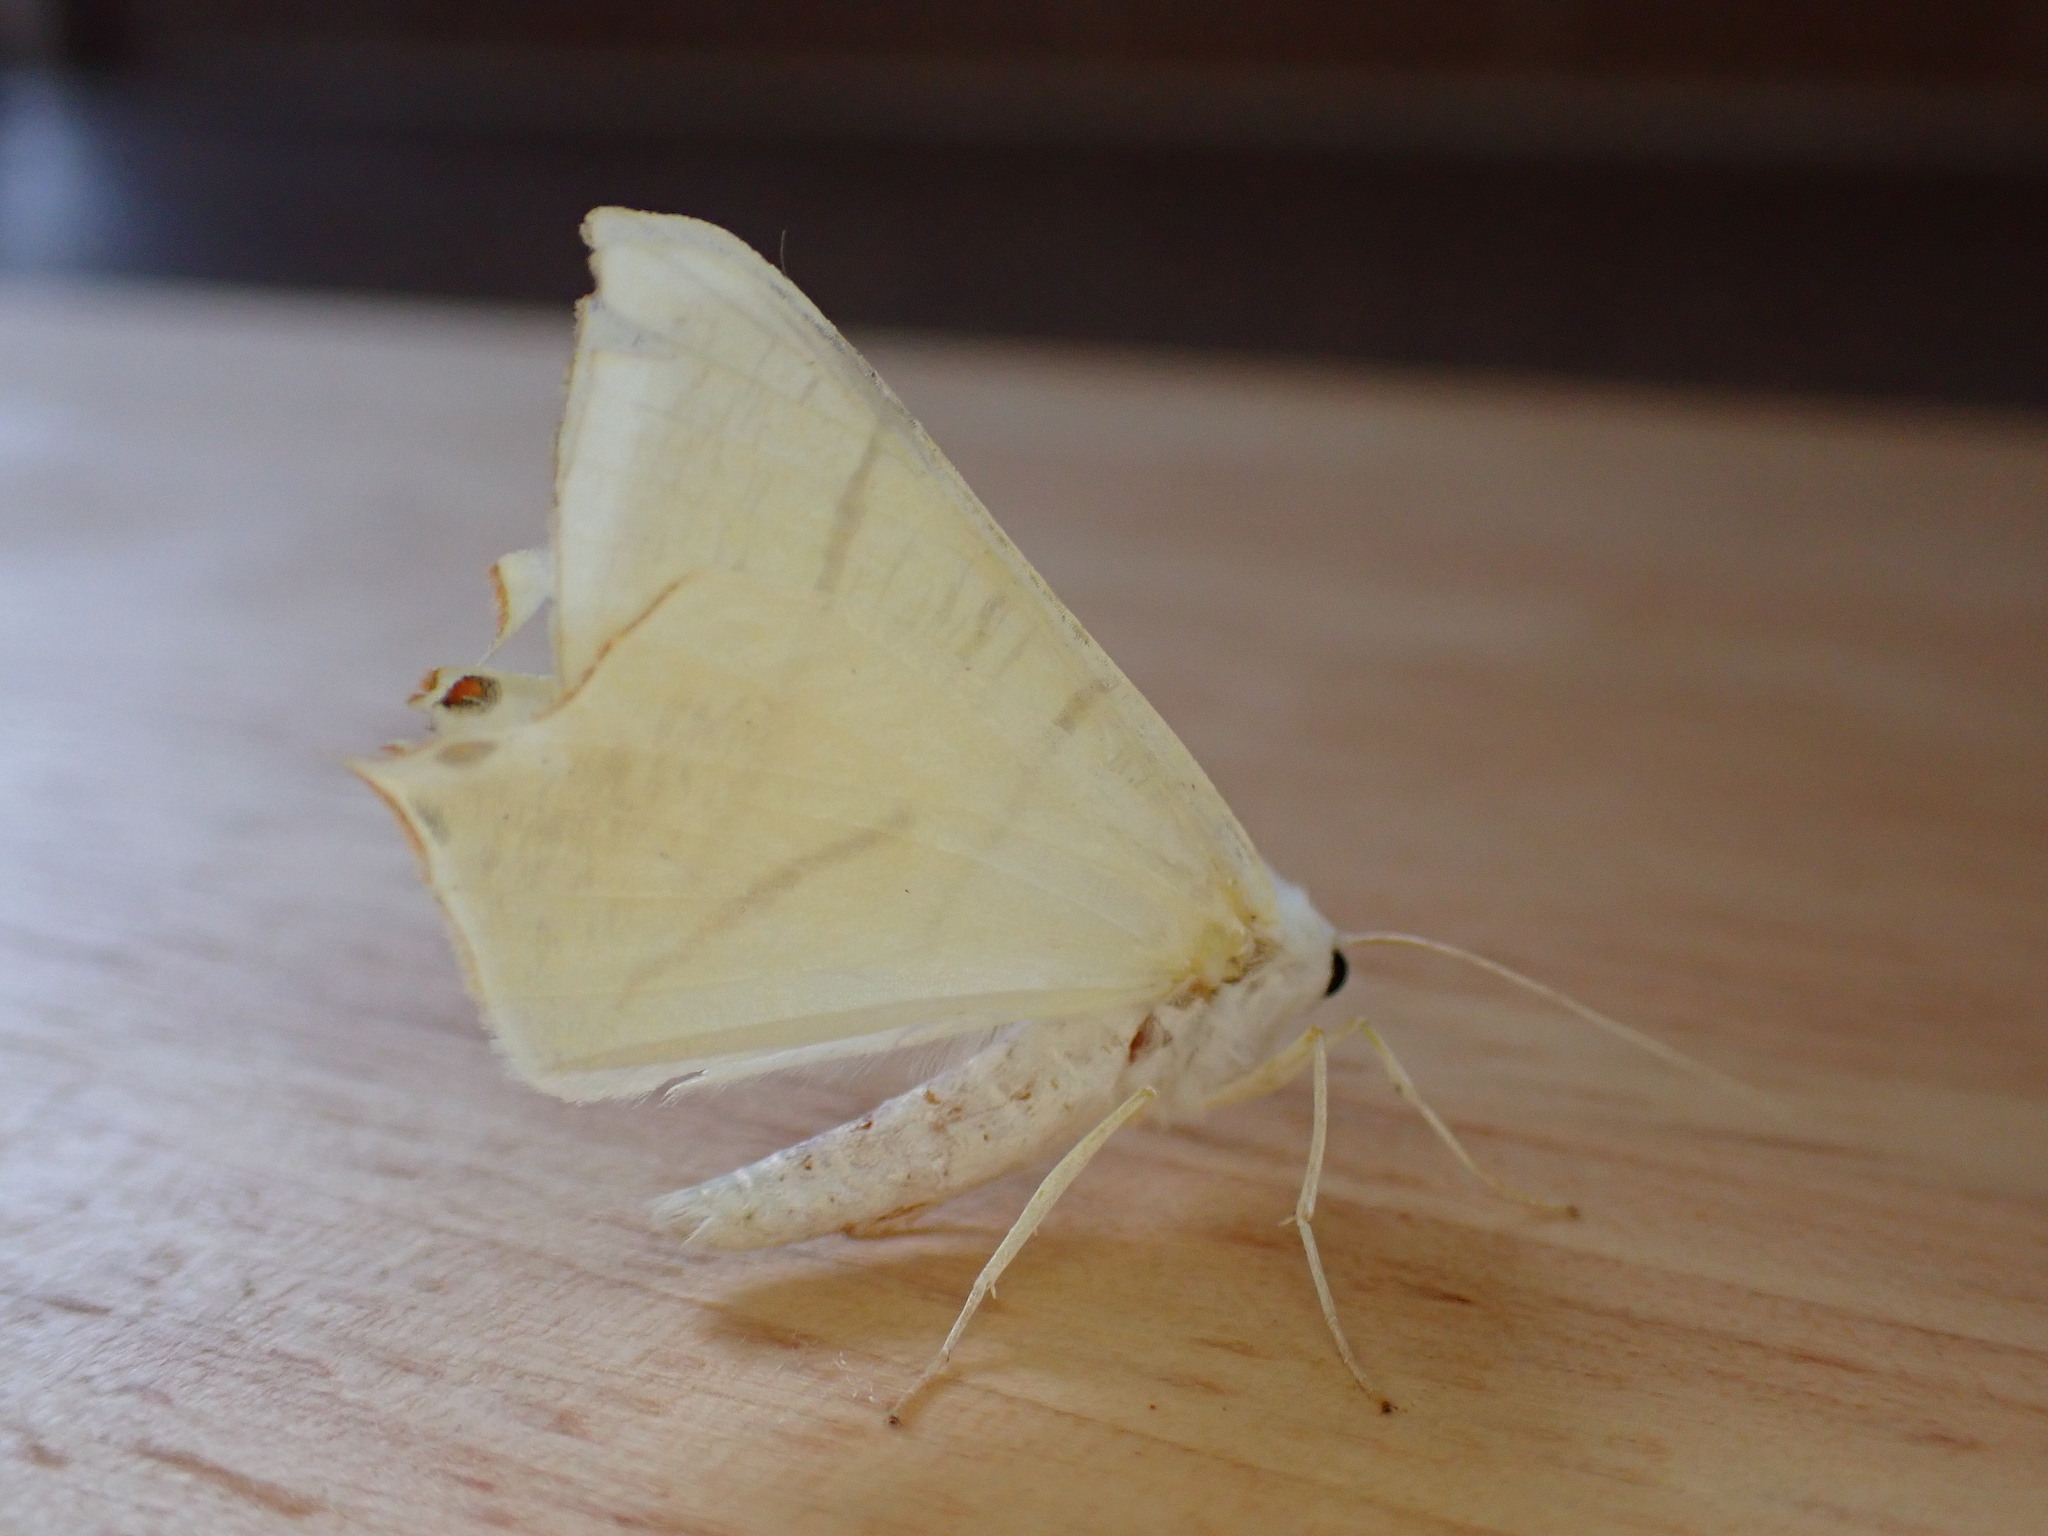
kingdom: Animalia
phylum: Arthropoda
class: Insecta
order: Lepidoptera
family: Geometridae
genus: Ourapteryx
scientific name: Ourapteryx sambucaria
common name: Swallow-tailed moth
